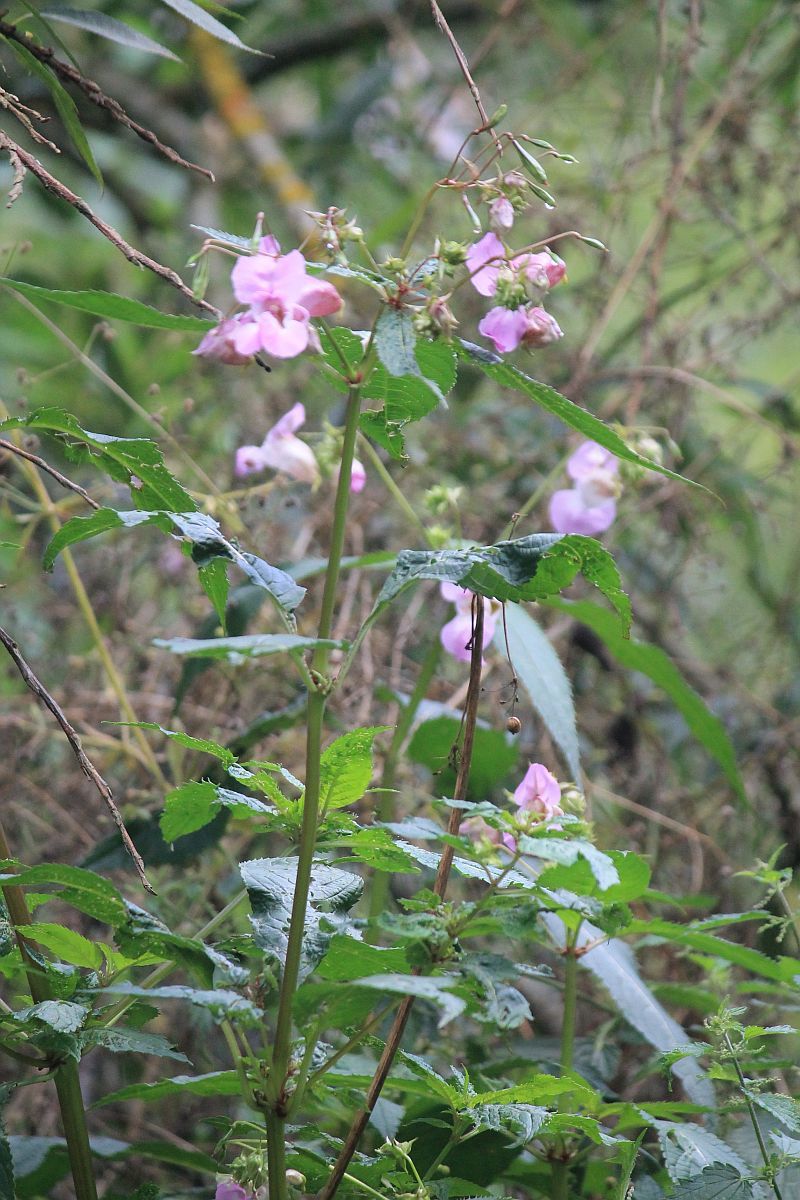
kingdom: Plantae
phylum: Tracheophyta
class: Magnoliopsida
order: Ericales
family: Balsaminaceae
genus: Impatiens
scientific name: Impatiens glandulifera
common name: Himalayan balsam
